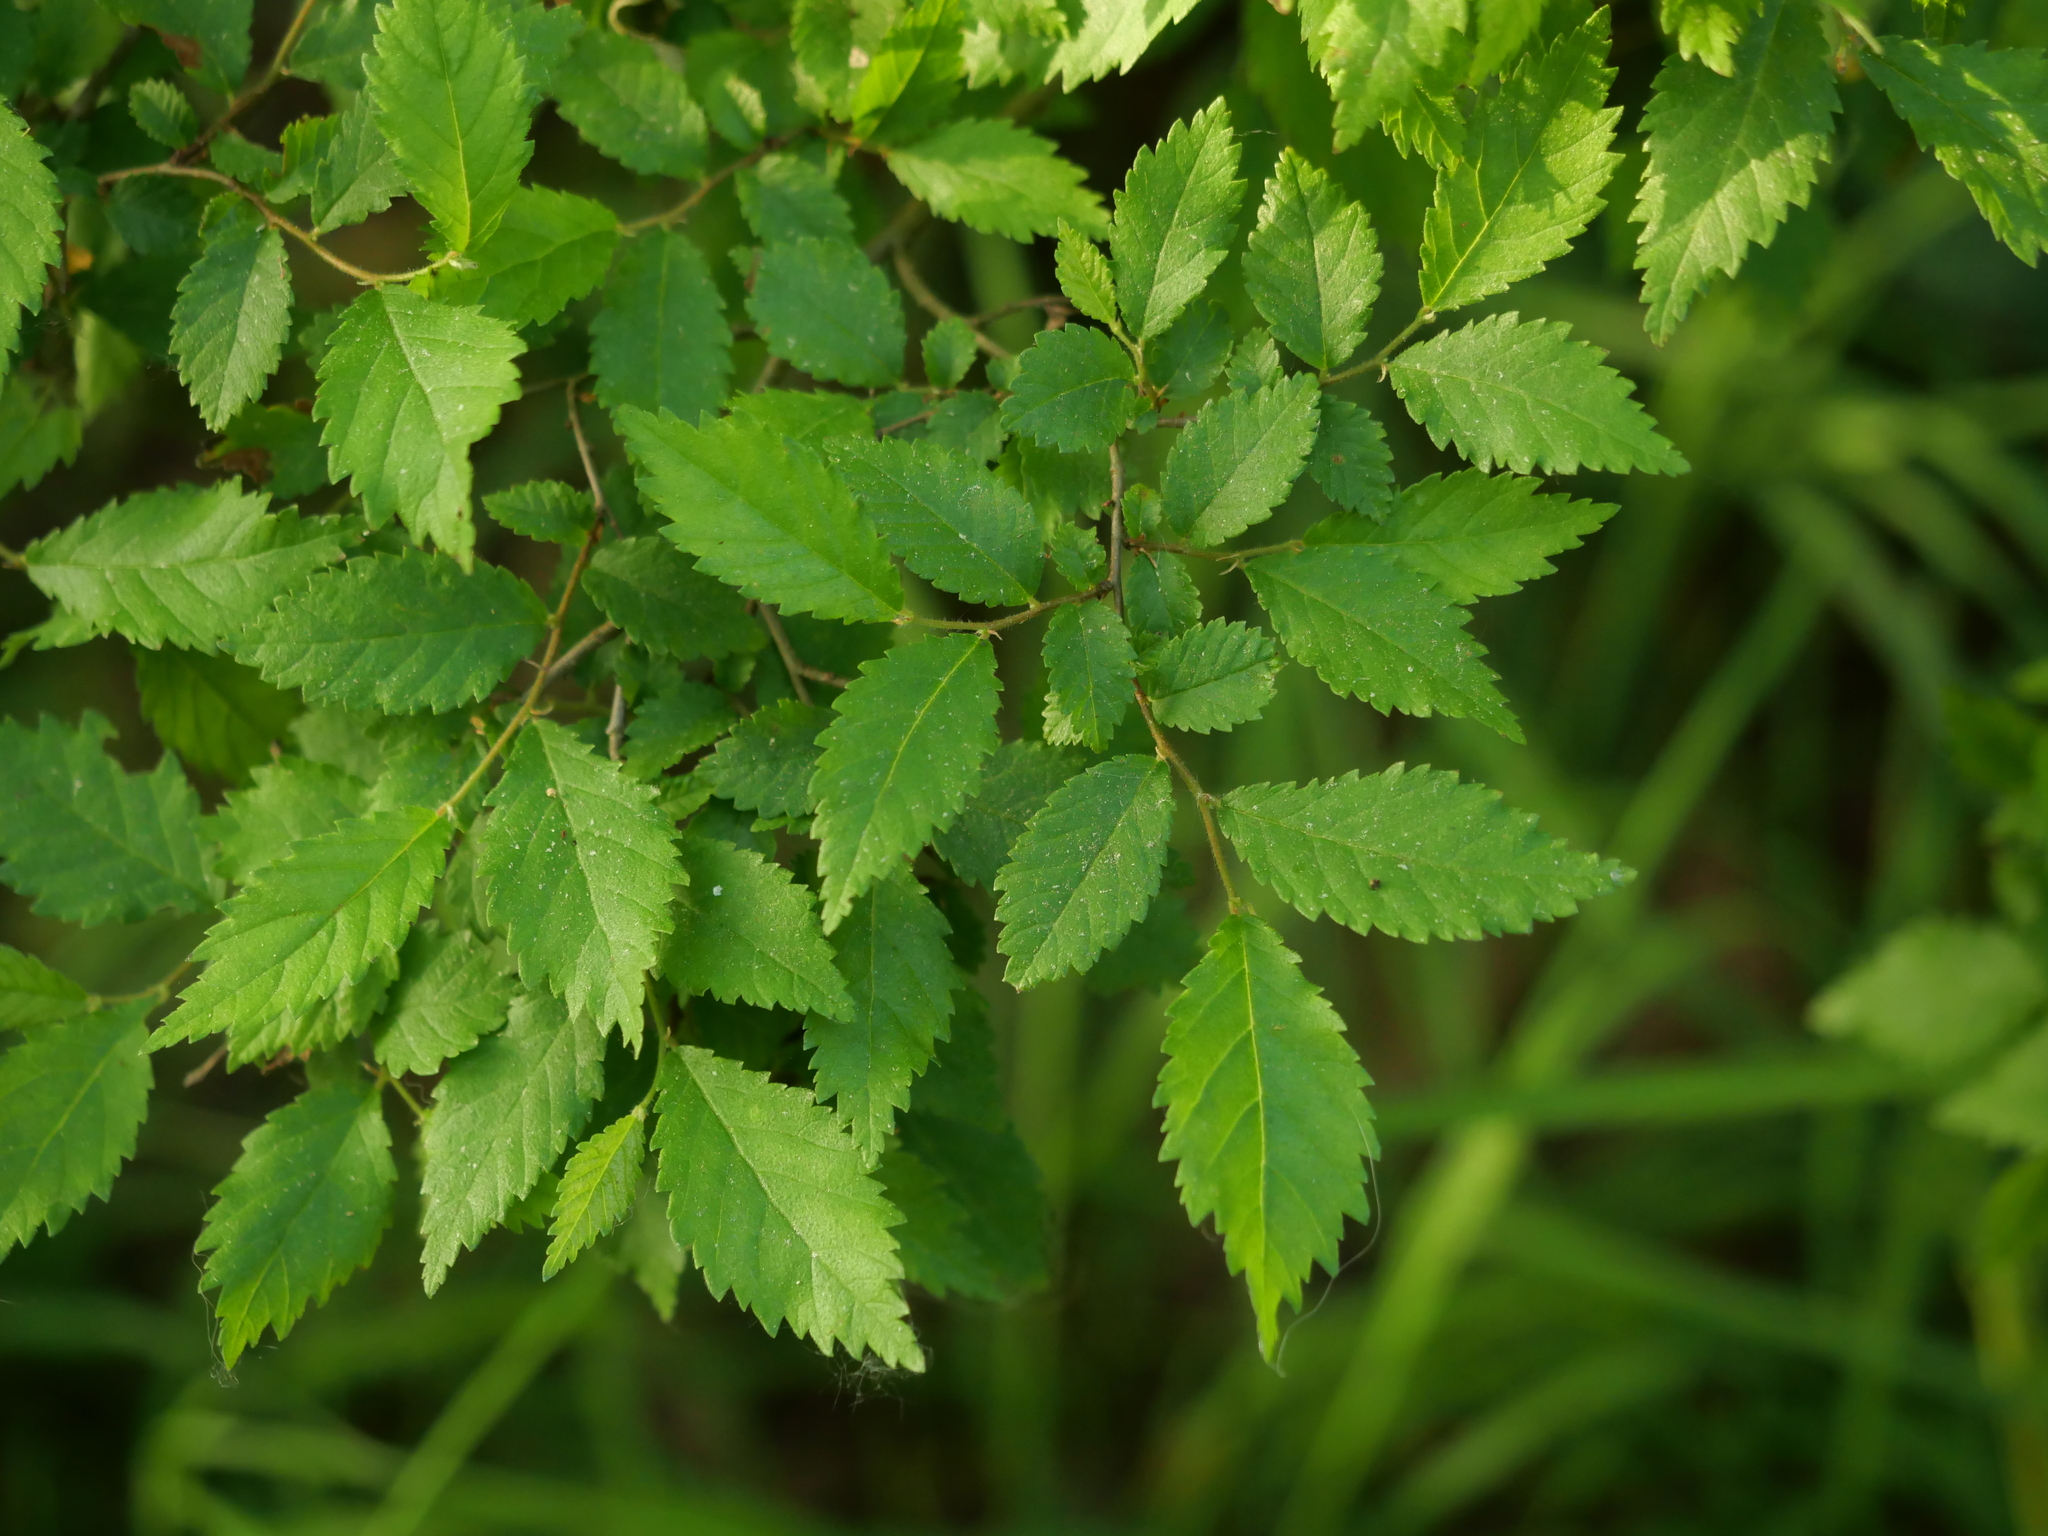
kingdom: Plantae
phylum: Tracheophyta
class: Magnoliopsida
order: Rosales
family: Ulmaceae
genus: Ulmus
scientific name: Ulmus minor
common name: Small-leaved elm
